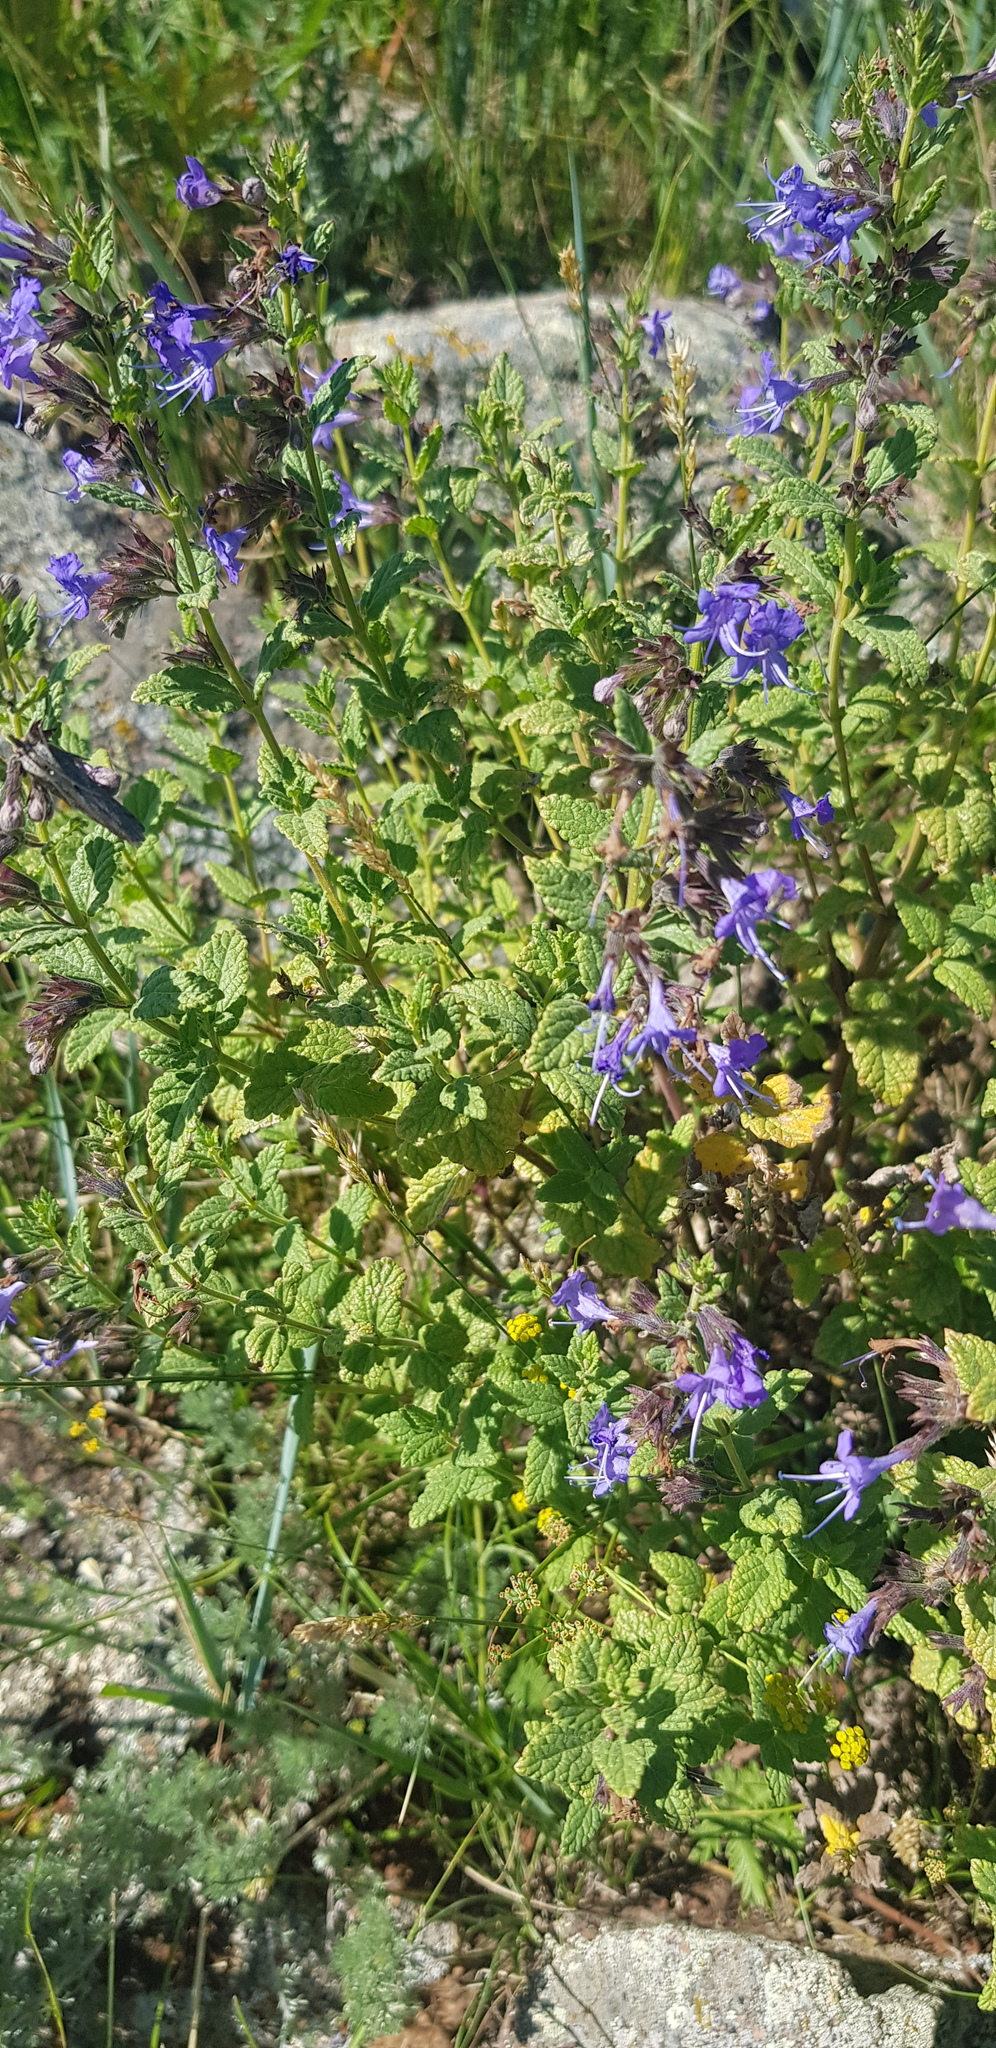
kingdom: Plantae
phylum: Tracheophyta
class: Magnoliopsida
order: Lamiales
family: Lamiaceae
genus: Nepeta
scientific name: Nepeta lophanthus
